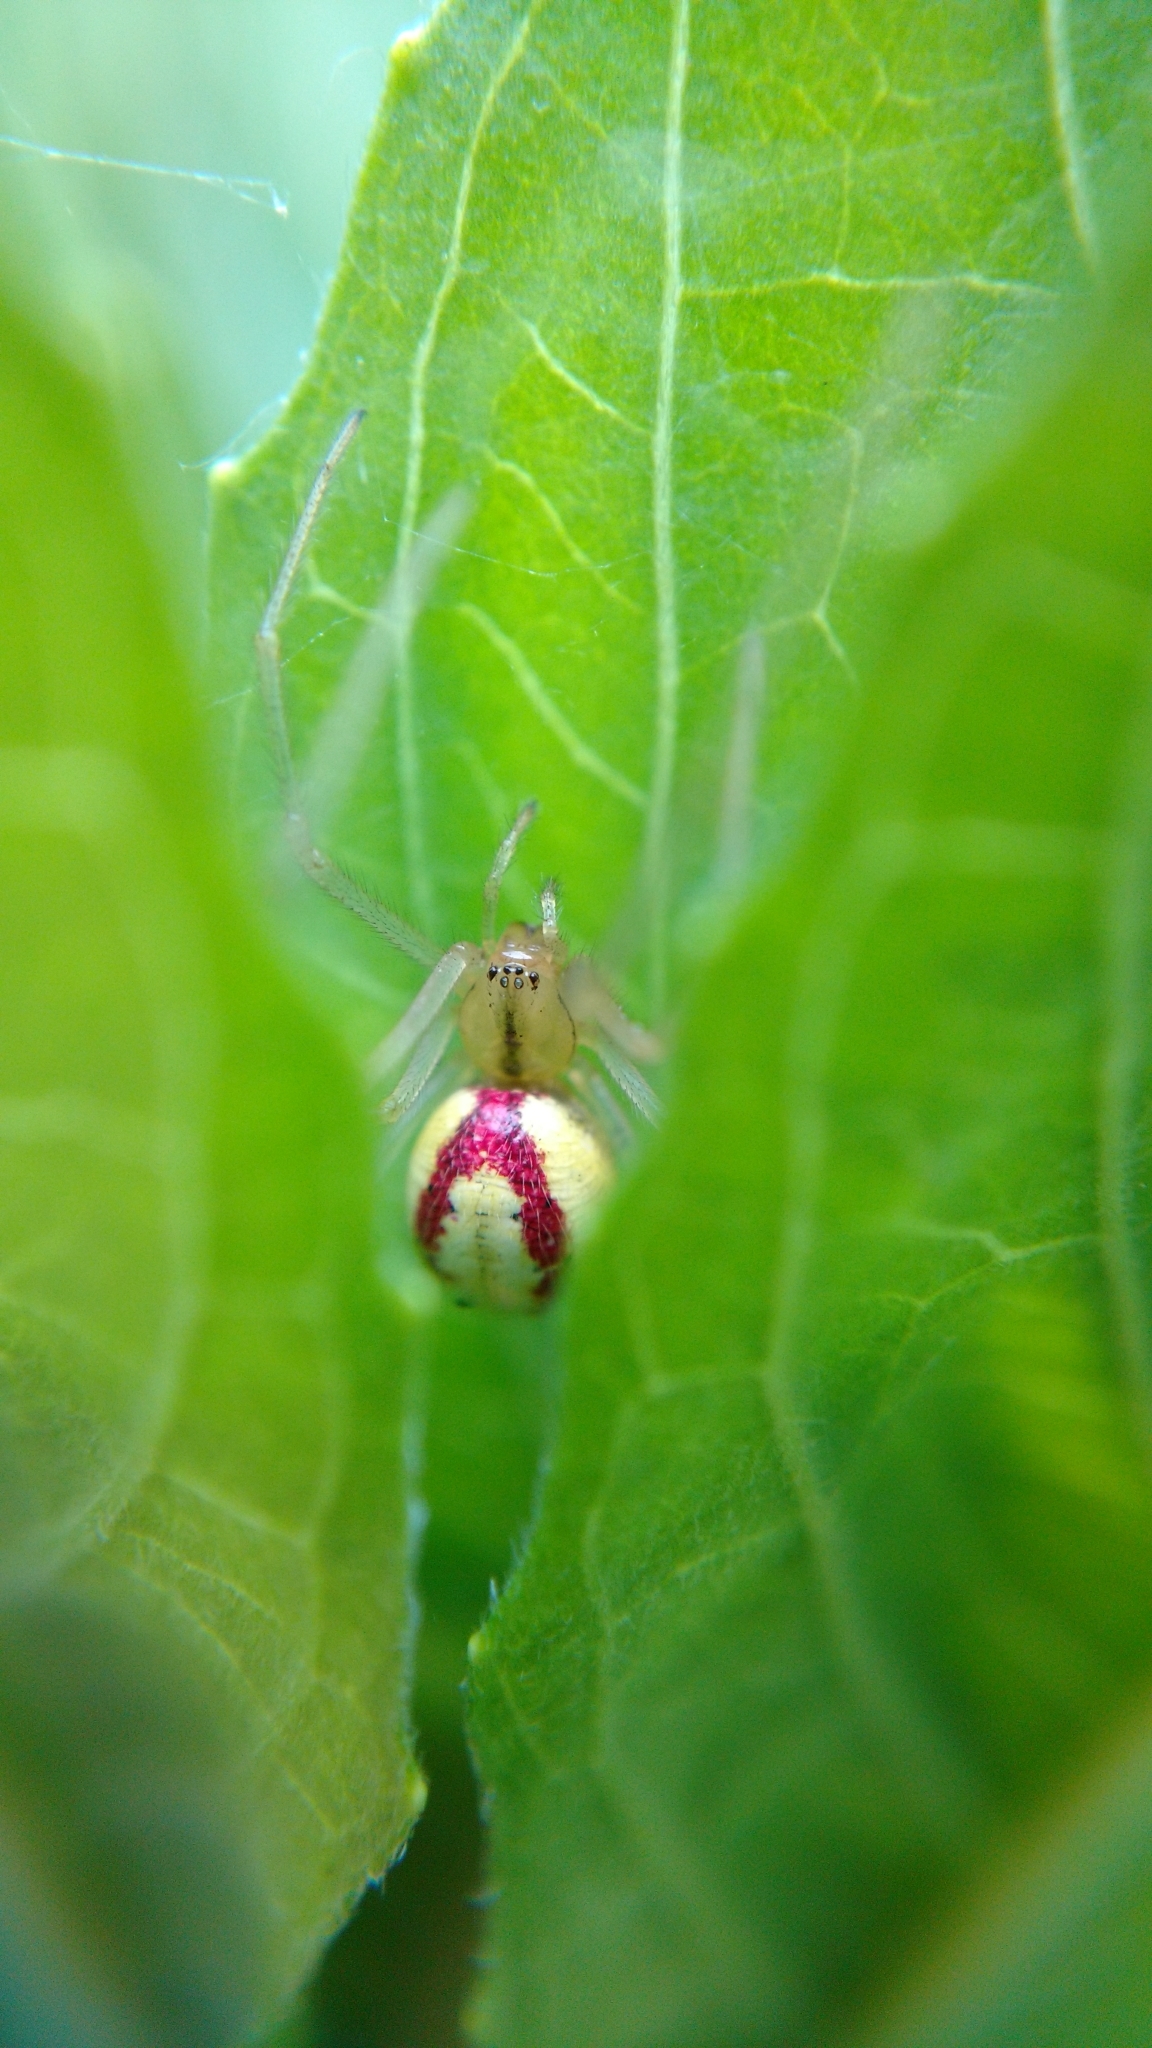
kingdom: Animalia
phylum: Arthropoda
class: Arachnida
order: Araneae
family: Theridiidae
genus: Enoplognatha
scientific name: Enoplognatha ovata
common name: Common candy-striped spider
